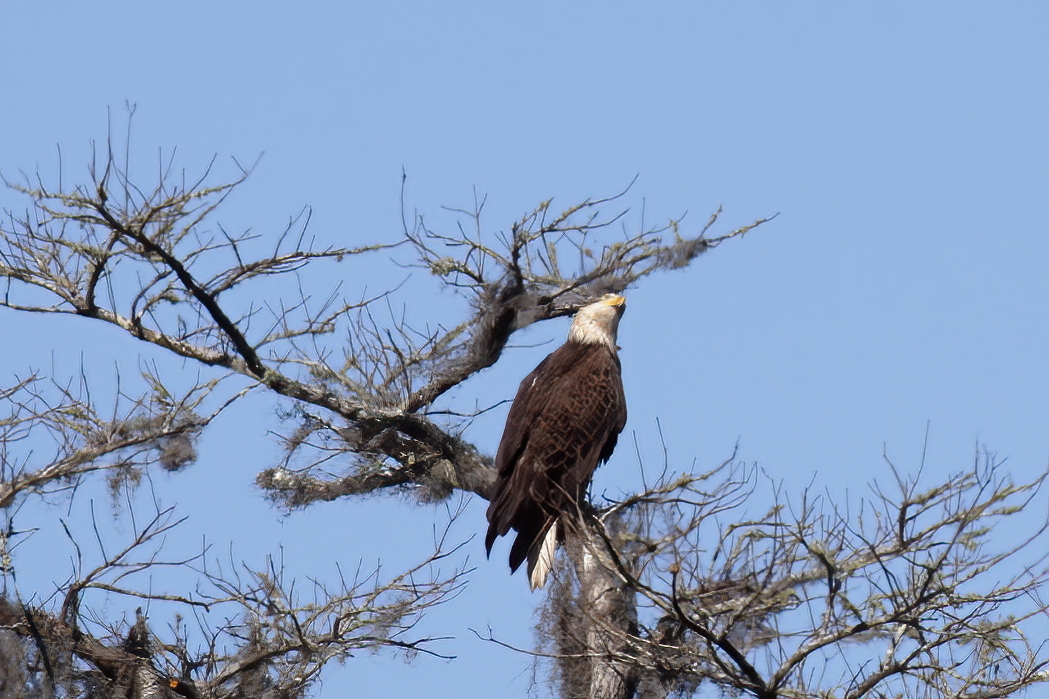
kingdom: Animalia
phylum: Chordata
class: Aves
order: Accipitriformes
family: Accipitridae
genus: Haliaeetus
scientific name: Haliaeetus leucocephalus
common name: Bald eagle
